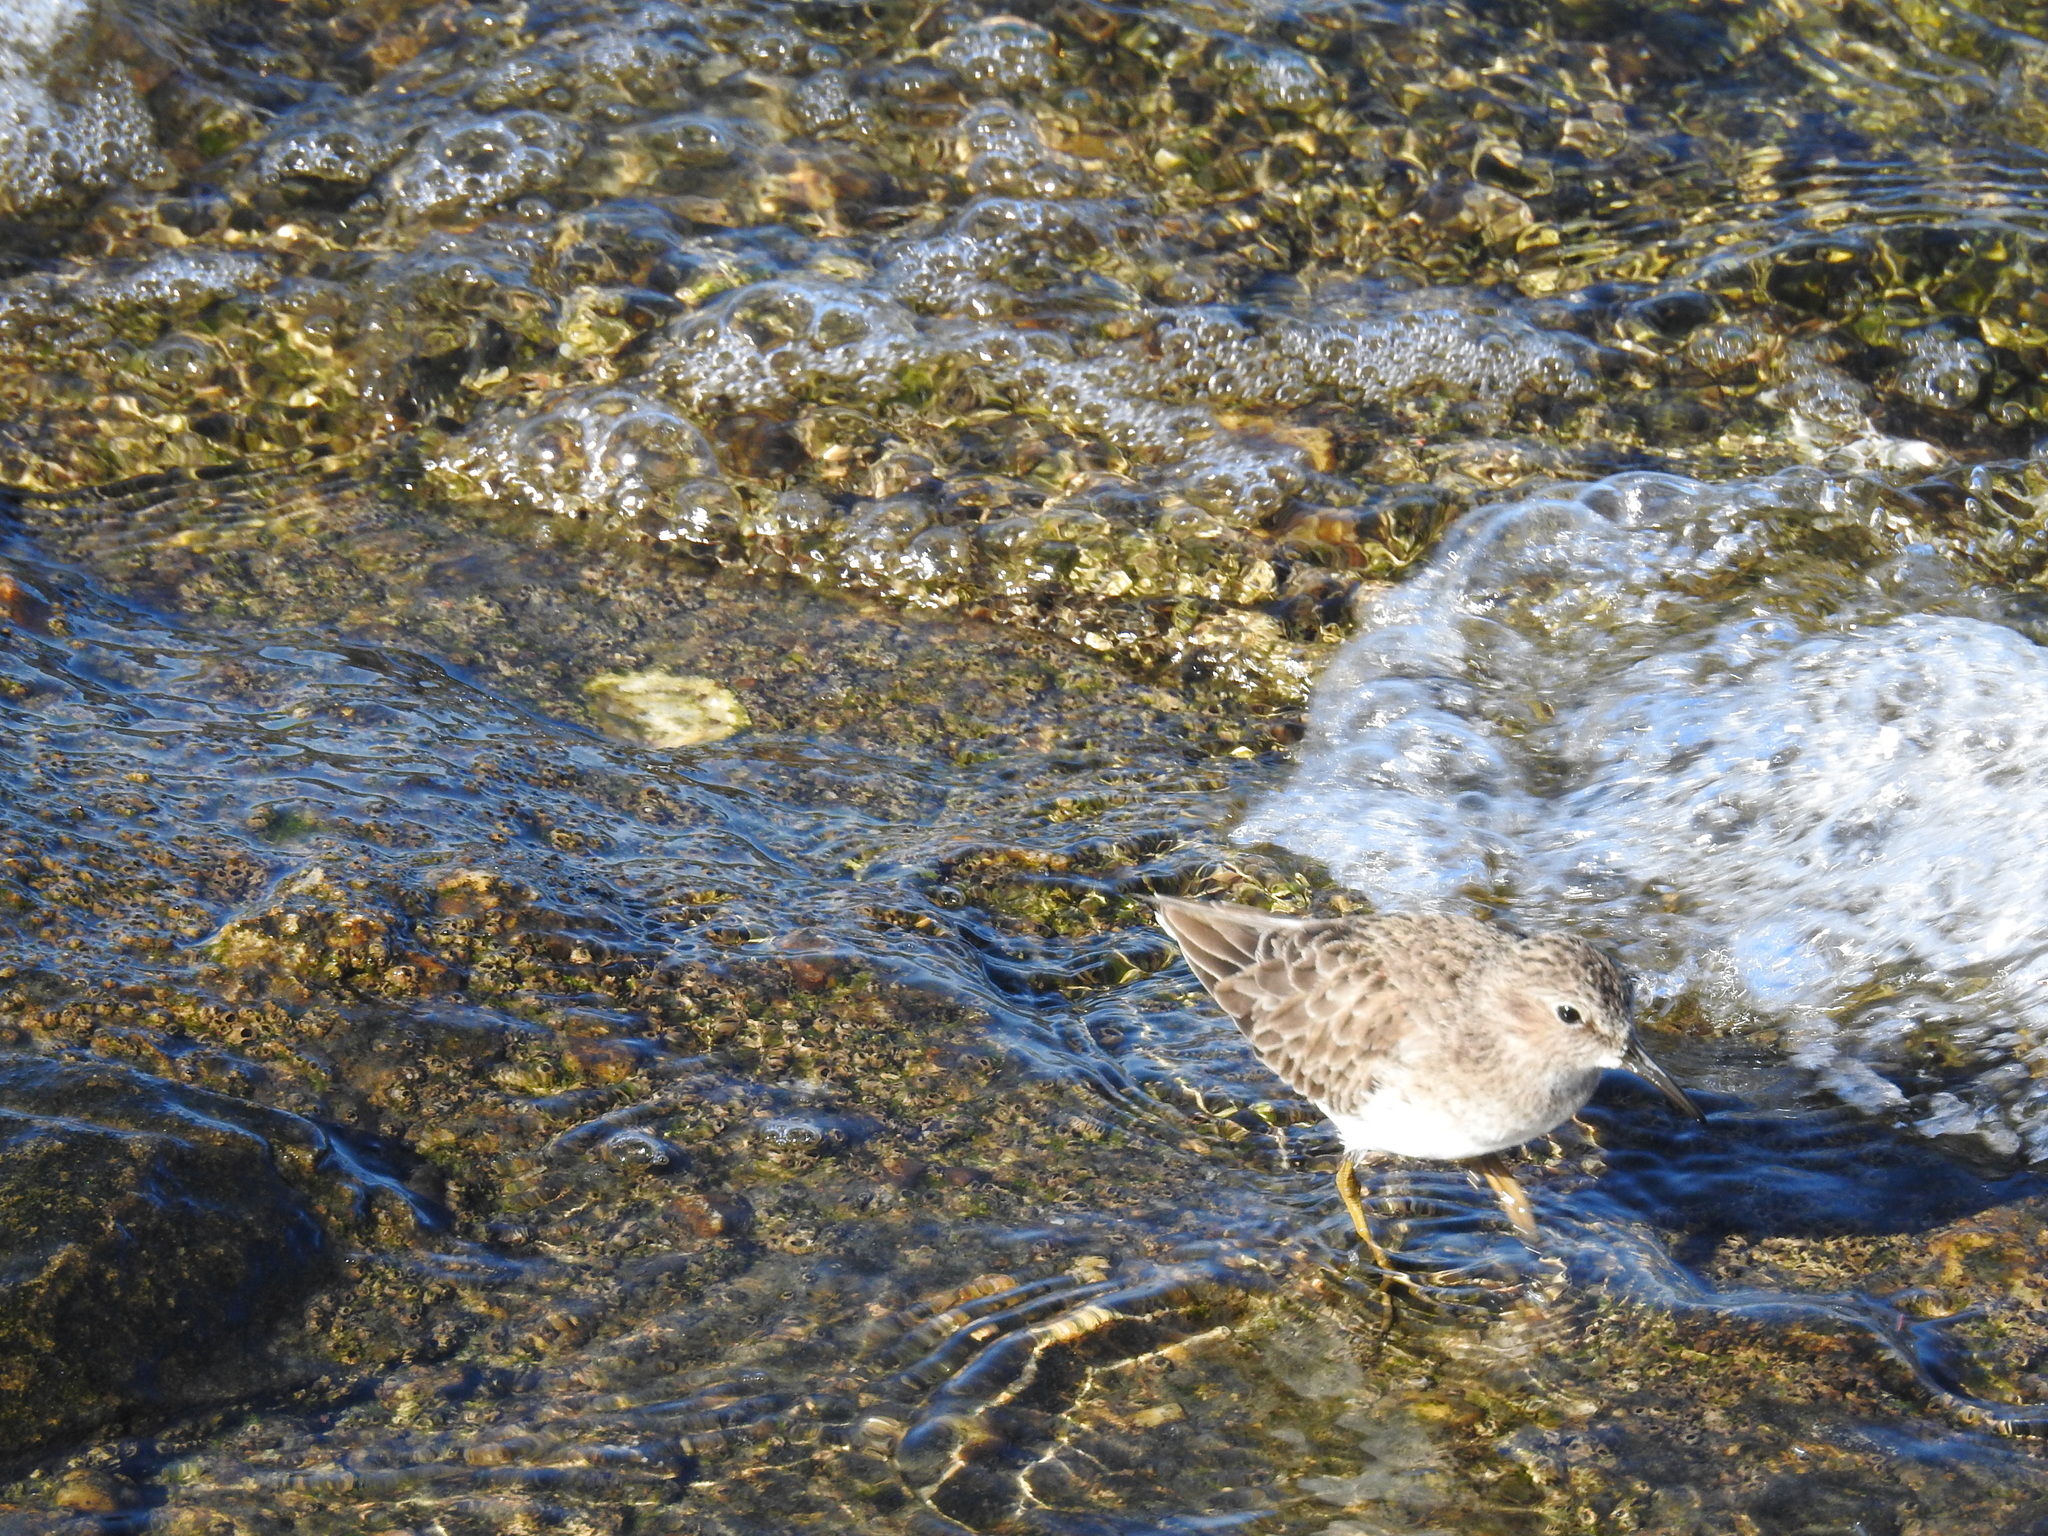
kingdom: Animalia
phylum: Chordata
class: Aves
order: Charadriiformes
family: Scolopacidae
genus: Calidris
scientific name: Calidris minutilla
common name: Least sandpiper
